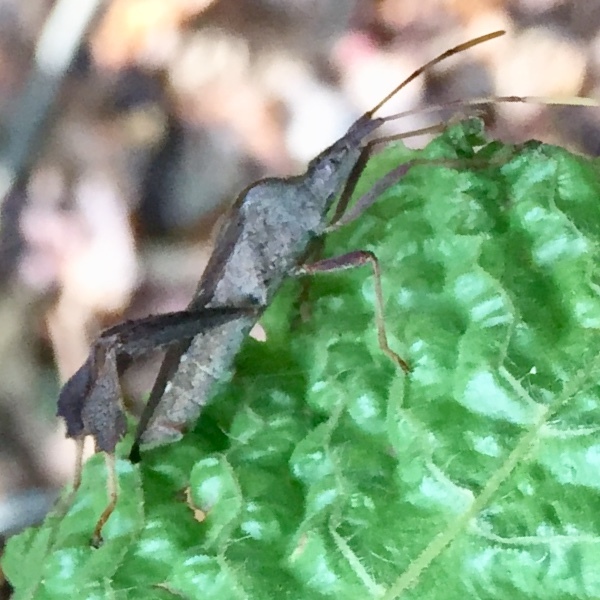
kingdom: Animalia
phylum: Arthropoda
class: Insecta
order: Hemiptera
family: Coreidae
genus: Leptoglossus
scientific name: Leptoglossus oppositus
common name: Northern leaf-footed bug
